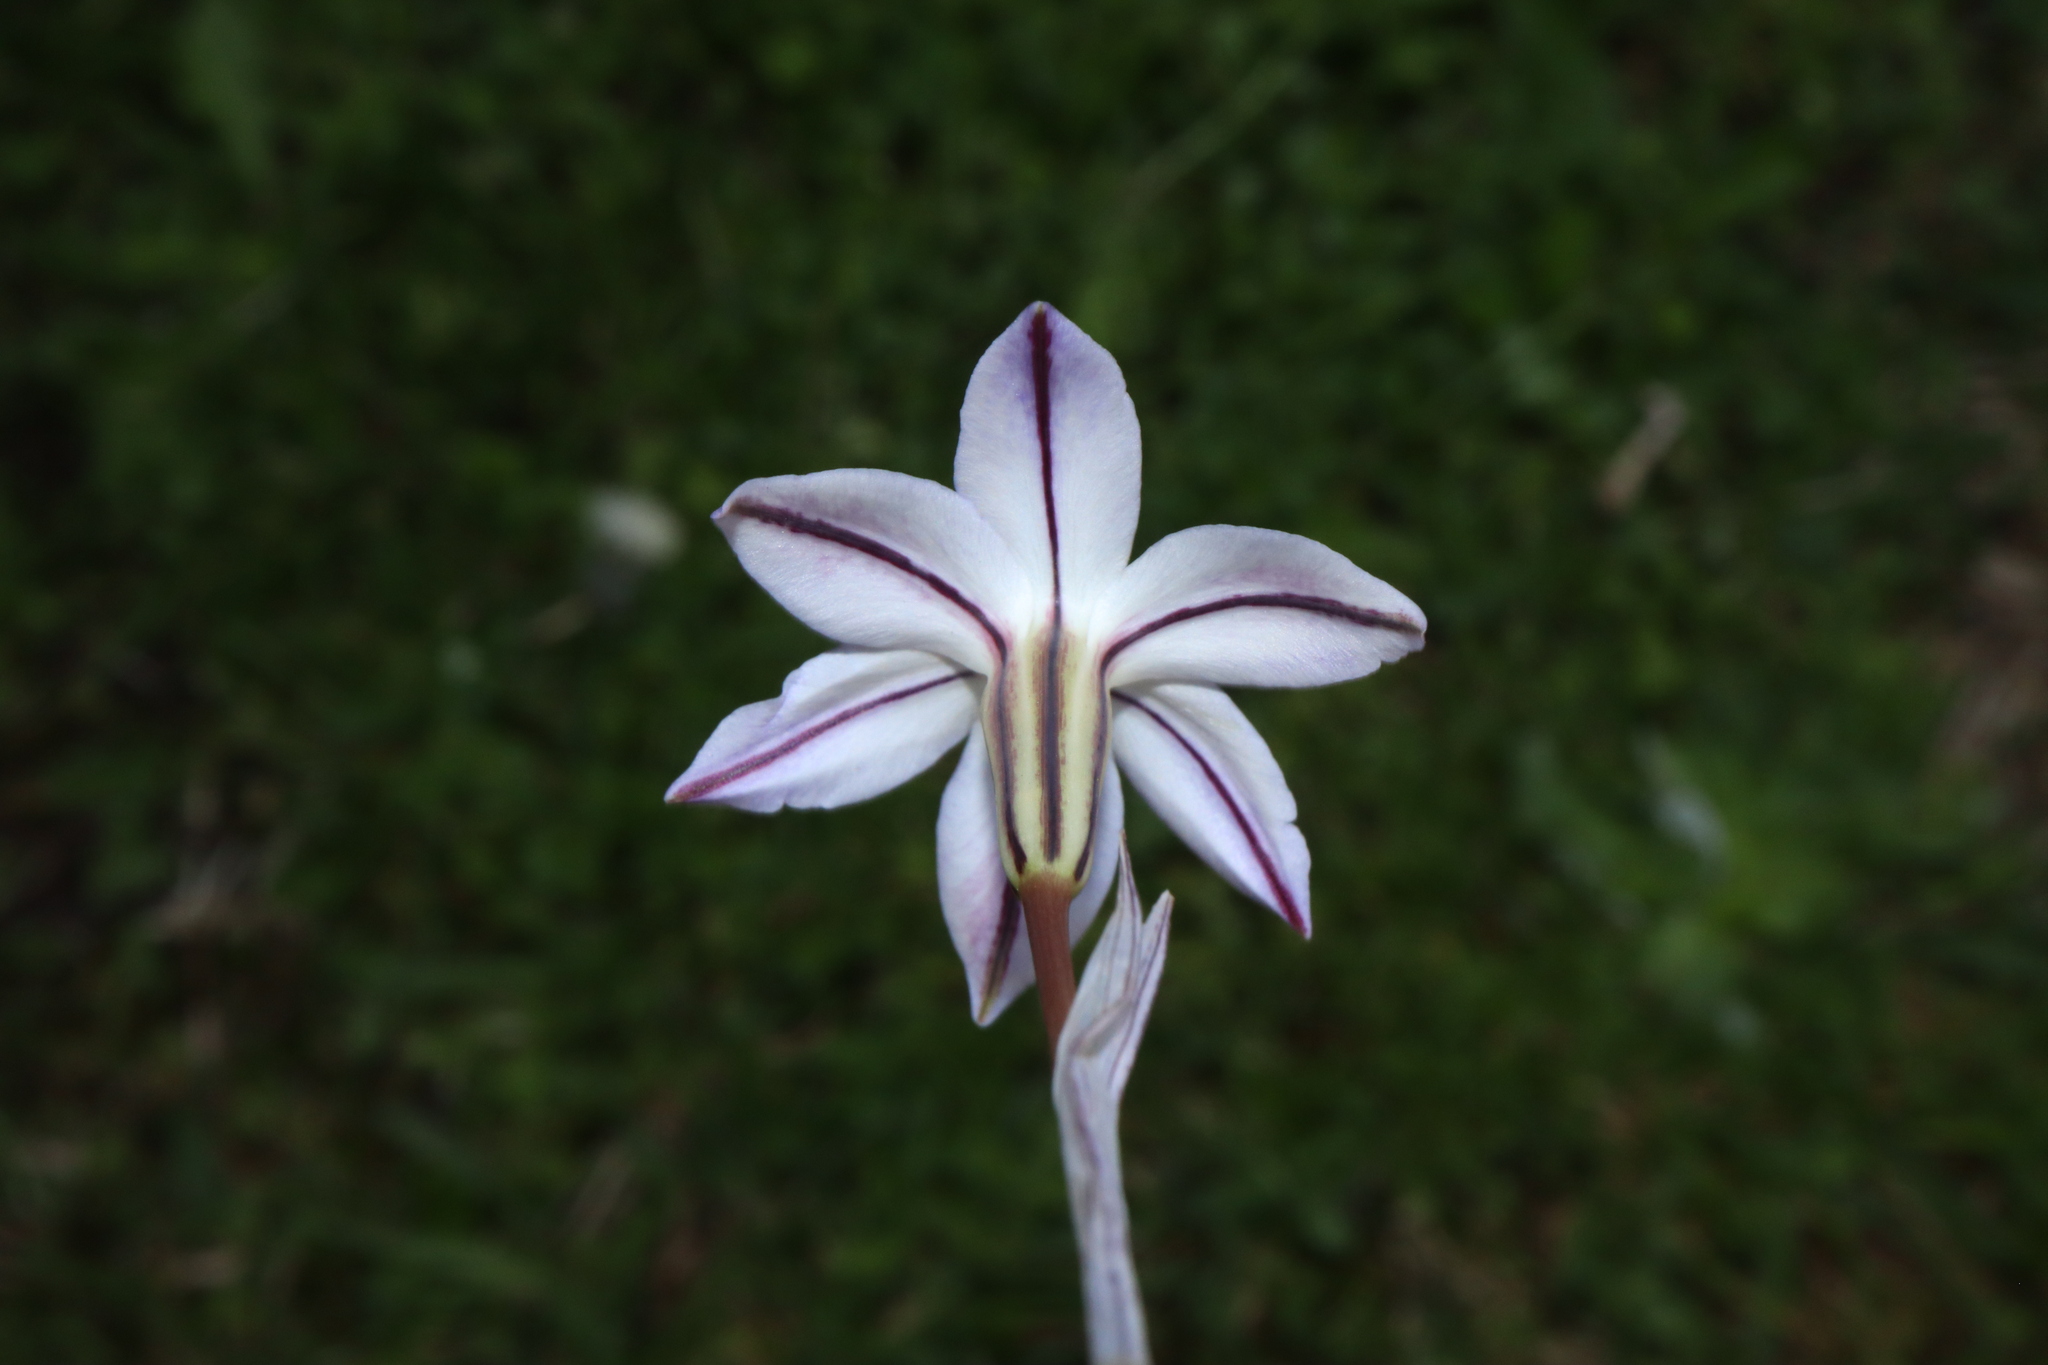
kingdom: Plantae
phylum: Tracheophyta
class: Liliopsida
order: Asparagales
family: Amaryllidaceae
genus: Ipheion
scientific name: Ipheion uniflorum
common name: Spring starflower
